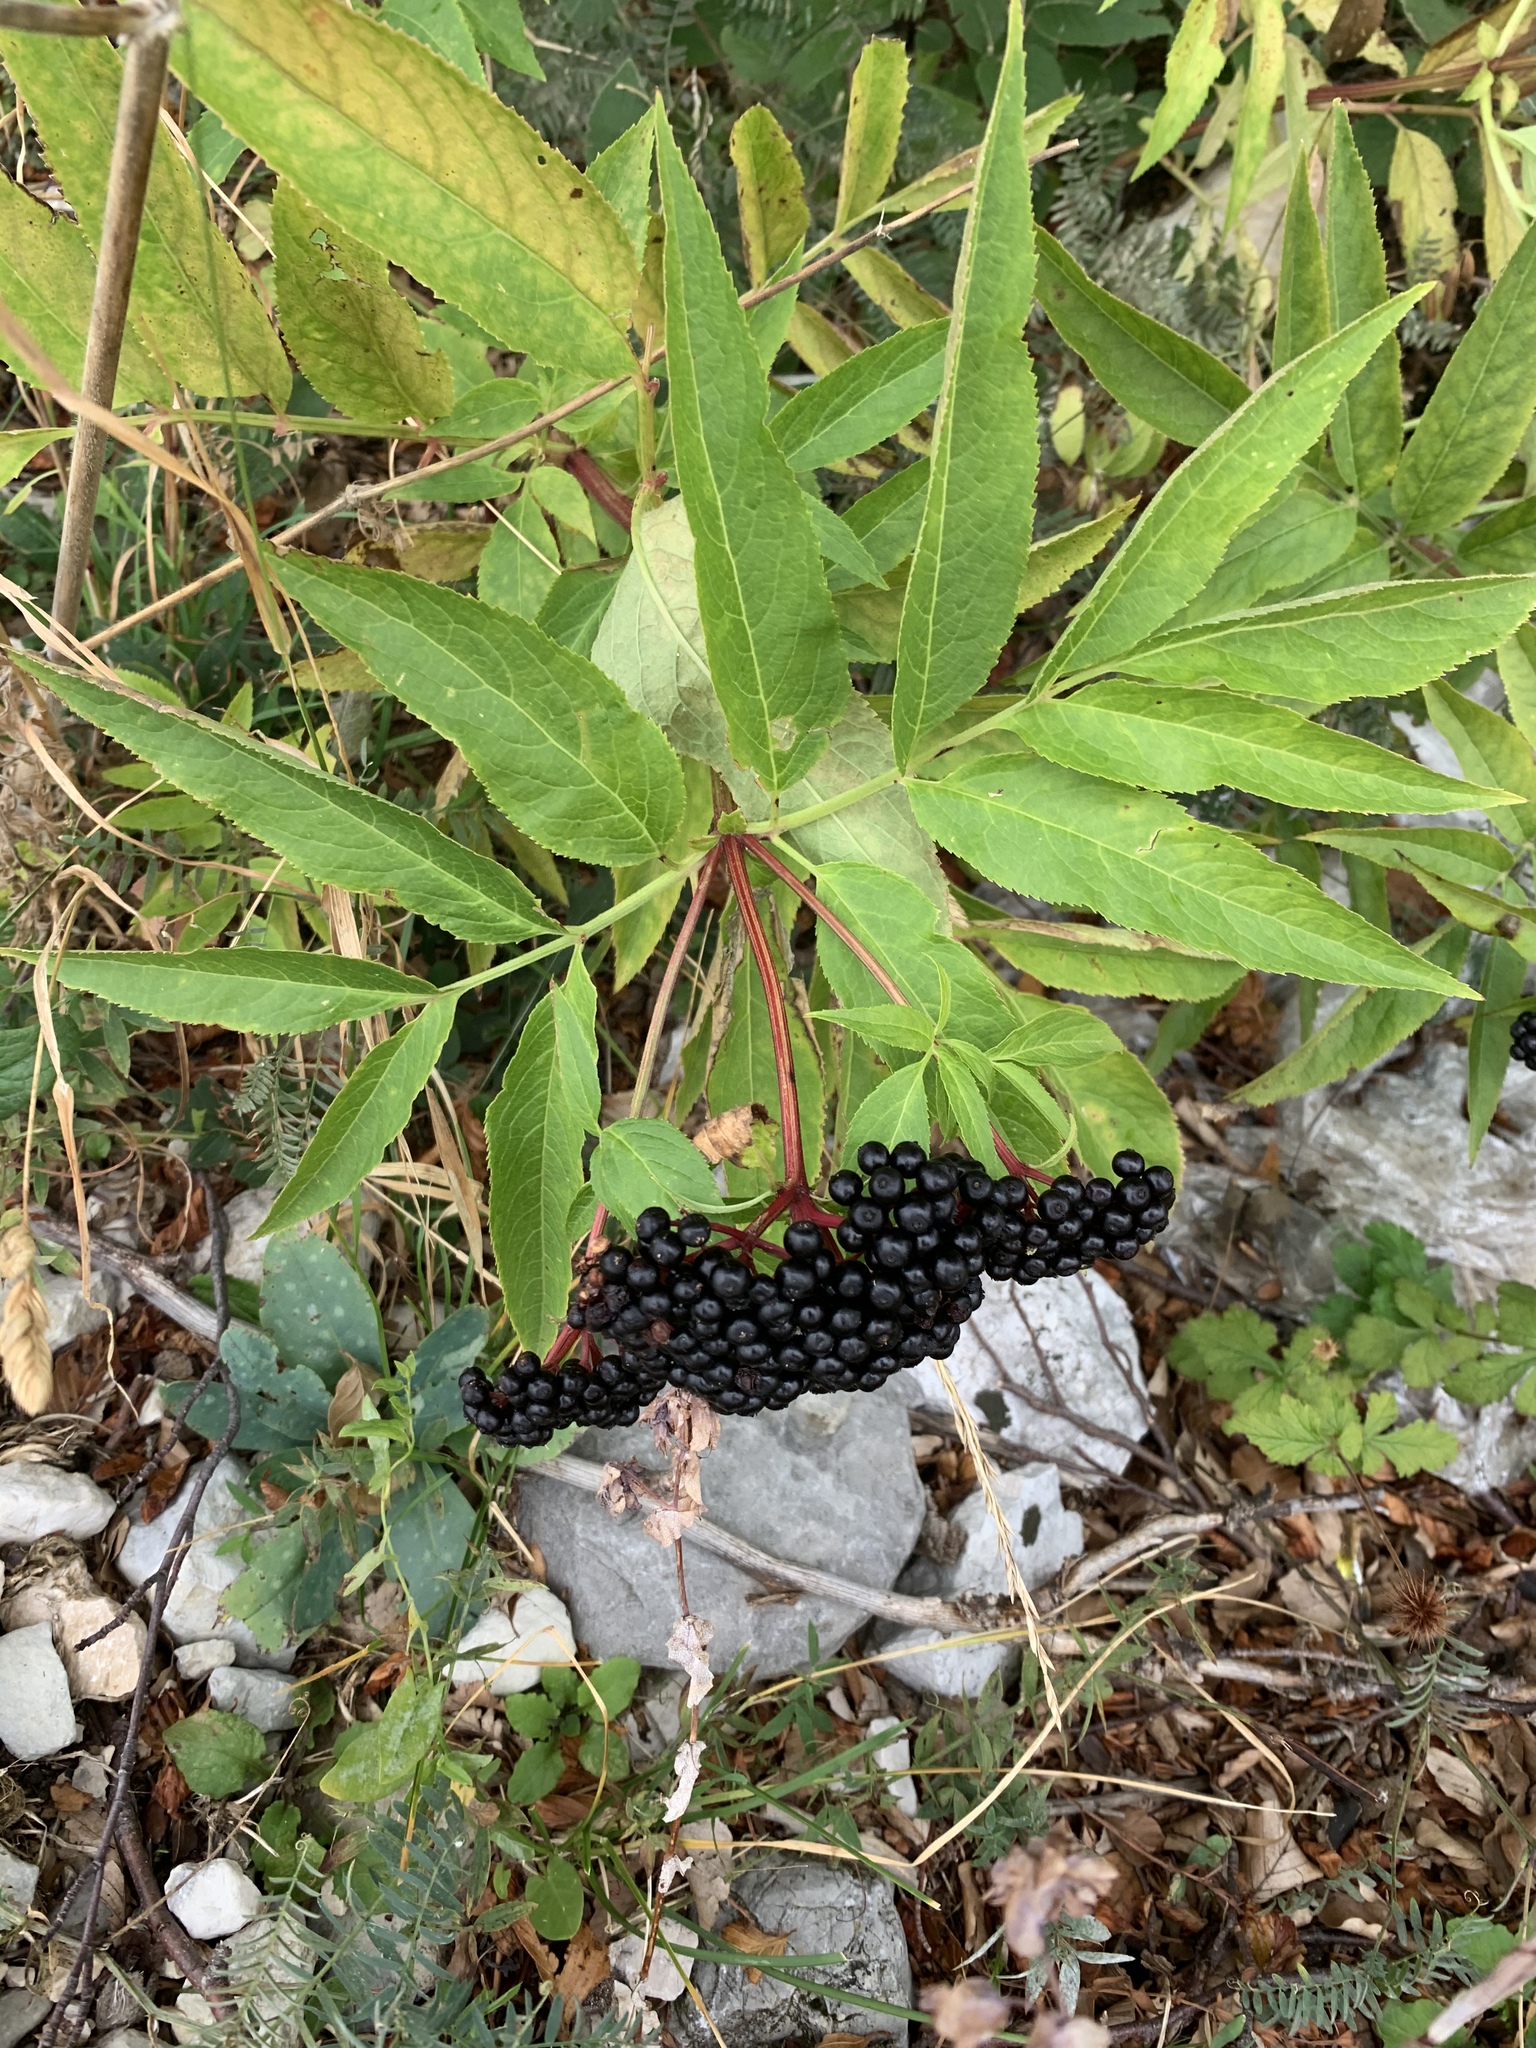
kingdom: Plantae
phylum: Tracheophyta
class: Magnoliopsida
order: Dipsacales
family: Viburnaceae
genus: Sambucus
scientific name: Sambucus ebulus
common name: Dwarf elder
